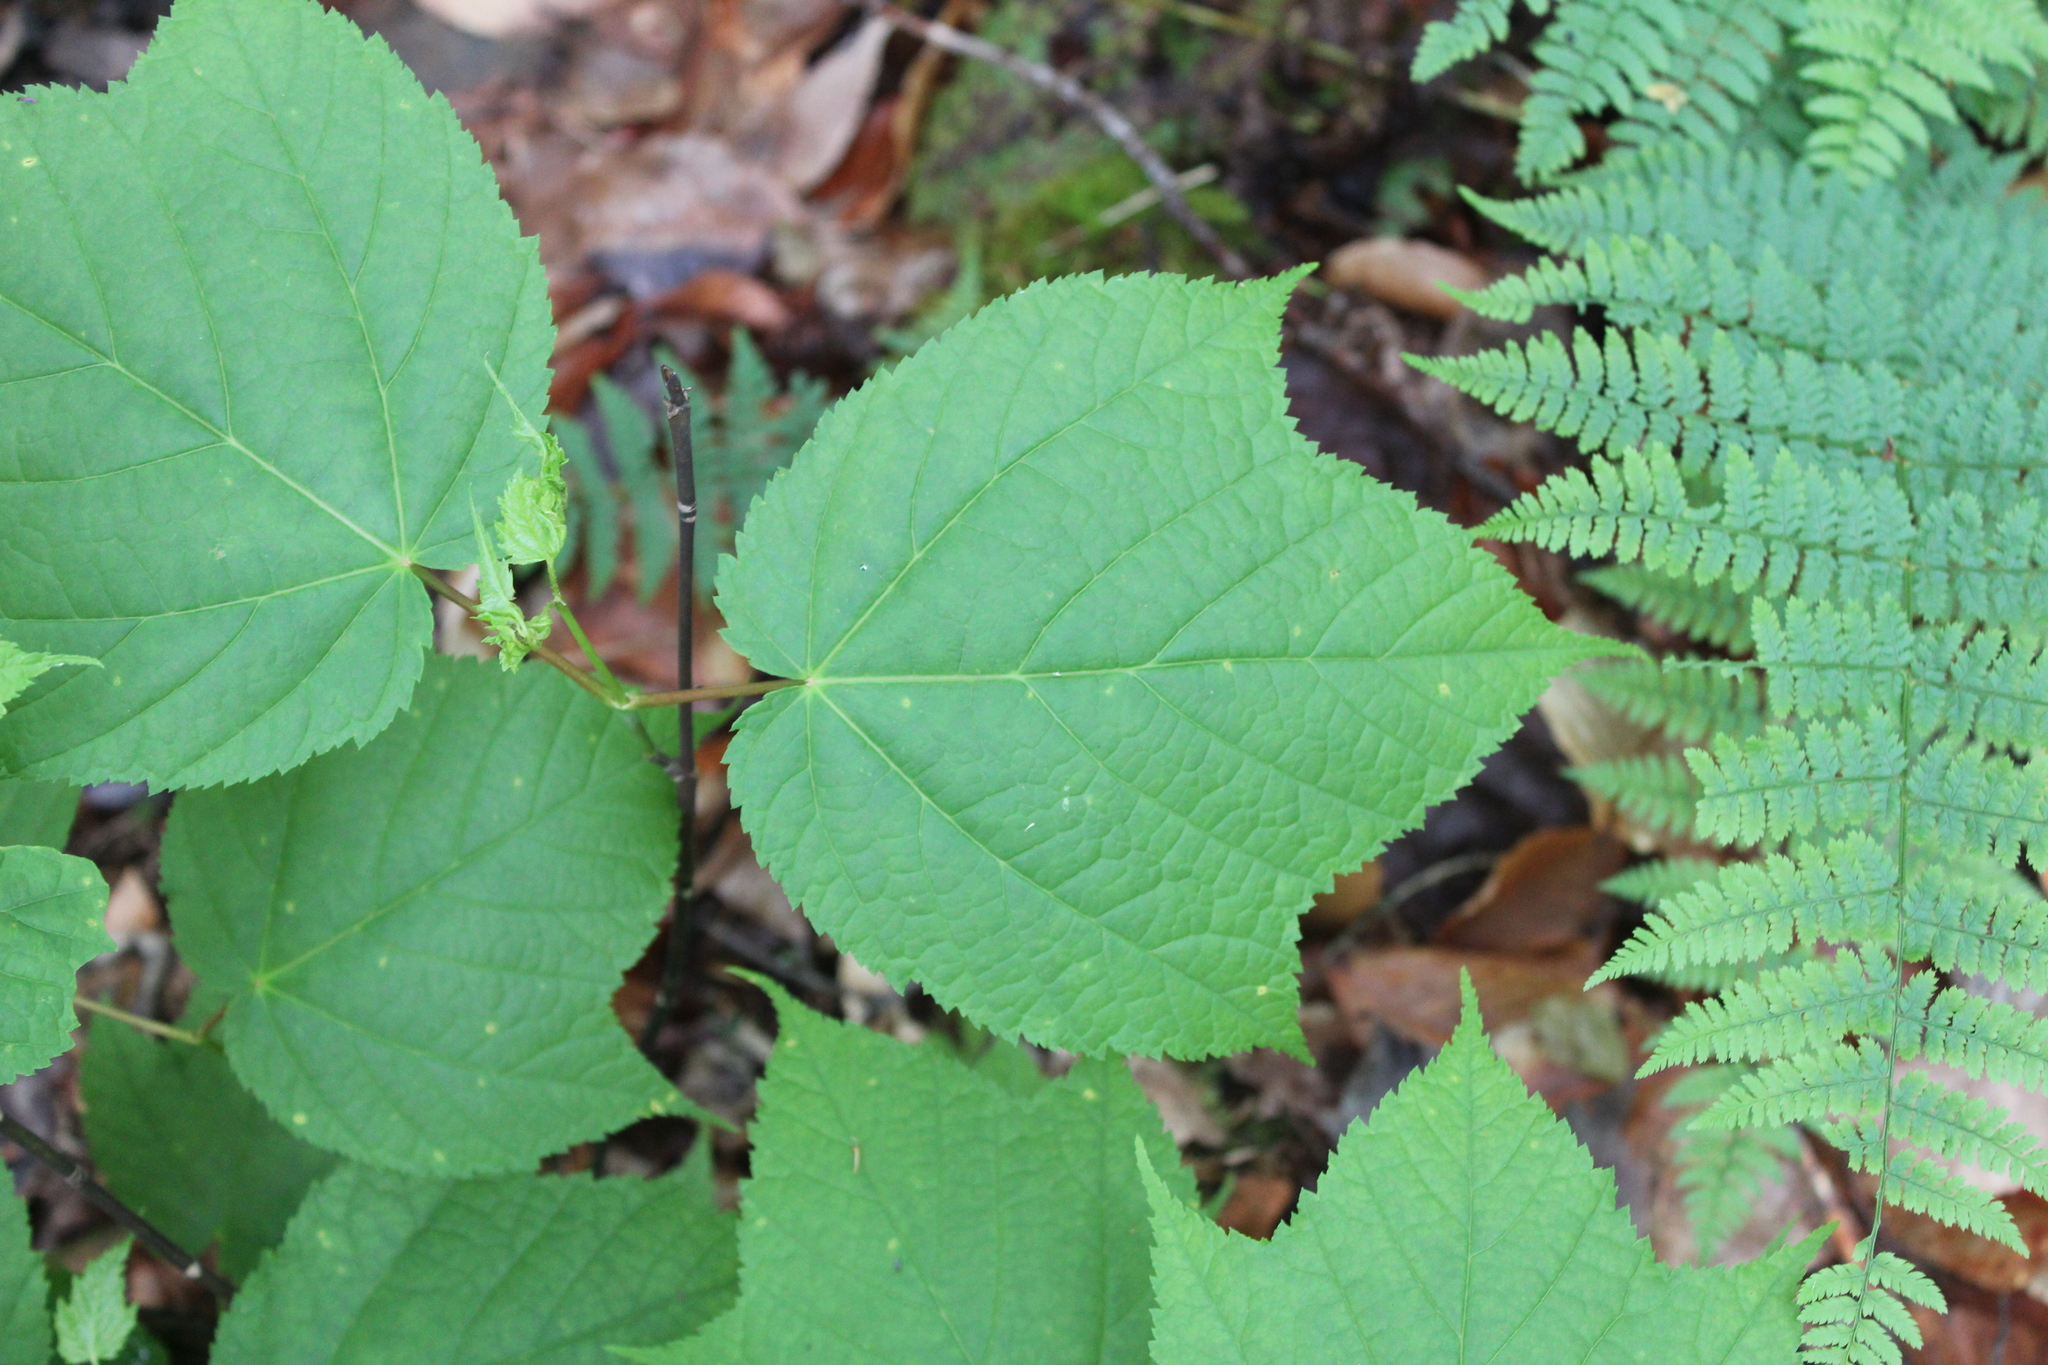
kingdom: Plantae
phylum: Tracheophyta
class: Magnoliopsida
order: Sapindales
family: Sapindaceae
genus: Acer
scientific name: Acer pensylvanicum
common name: Moosewood
